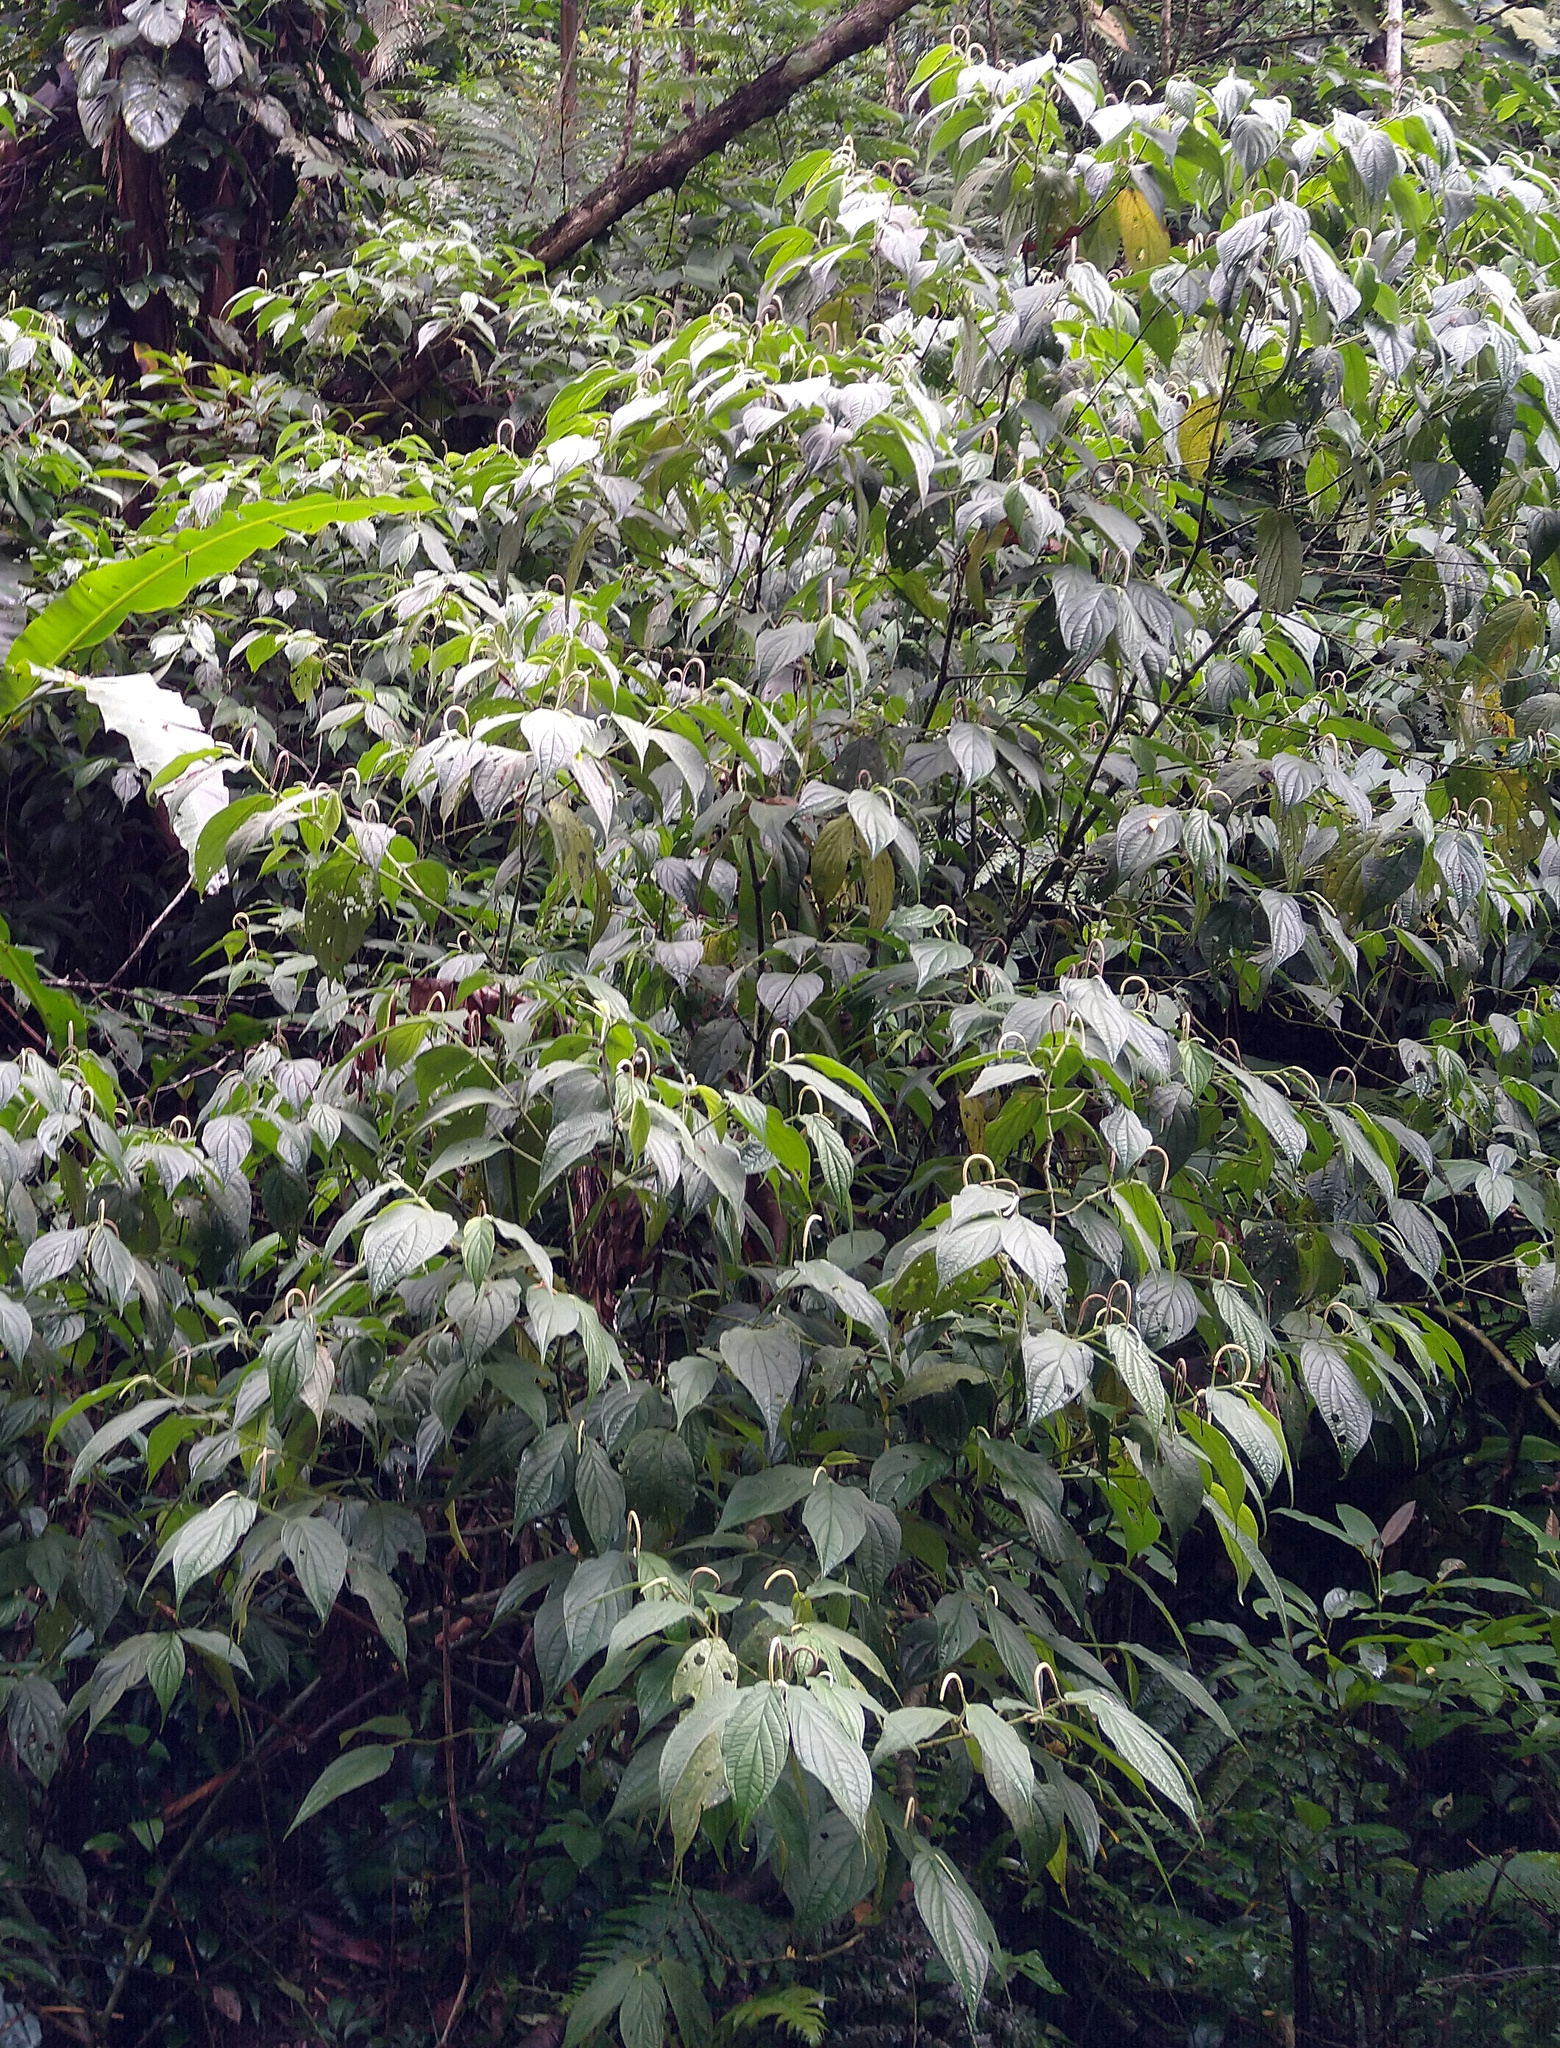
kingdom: Plantae
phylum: Tracheophyta
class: Magnoliopsida
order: Piperales
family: Piperaceae
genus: Piper
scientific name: Piper aduncum
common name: Spiked pepper
